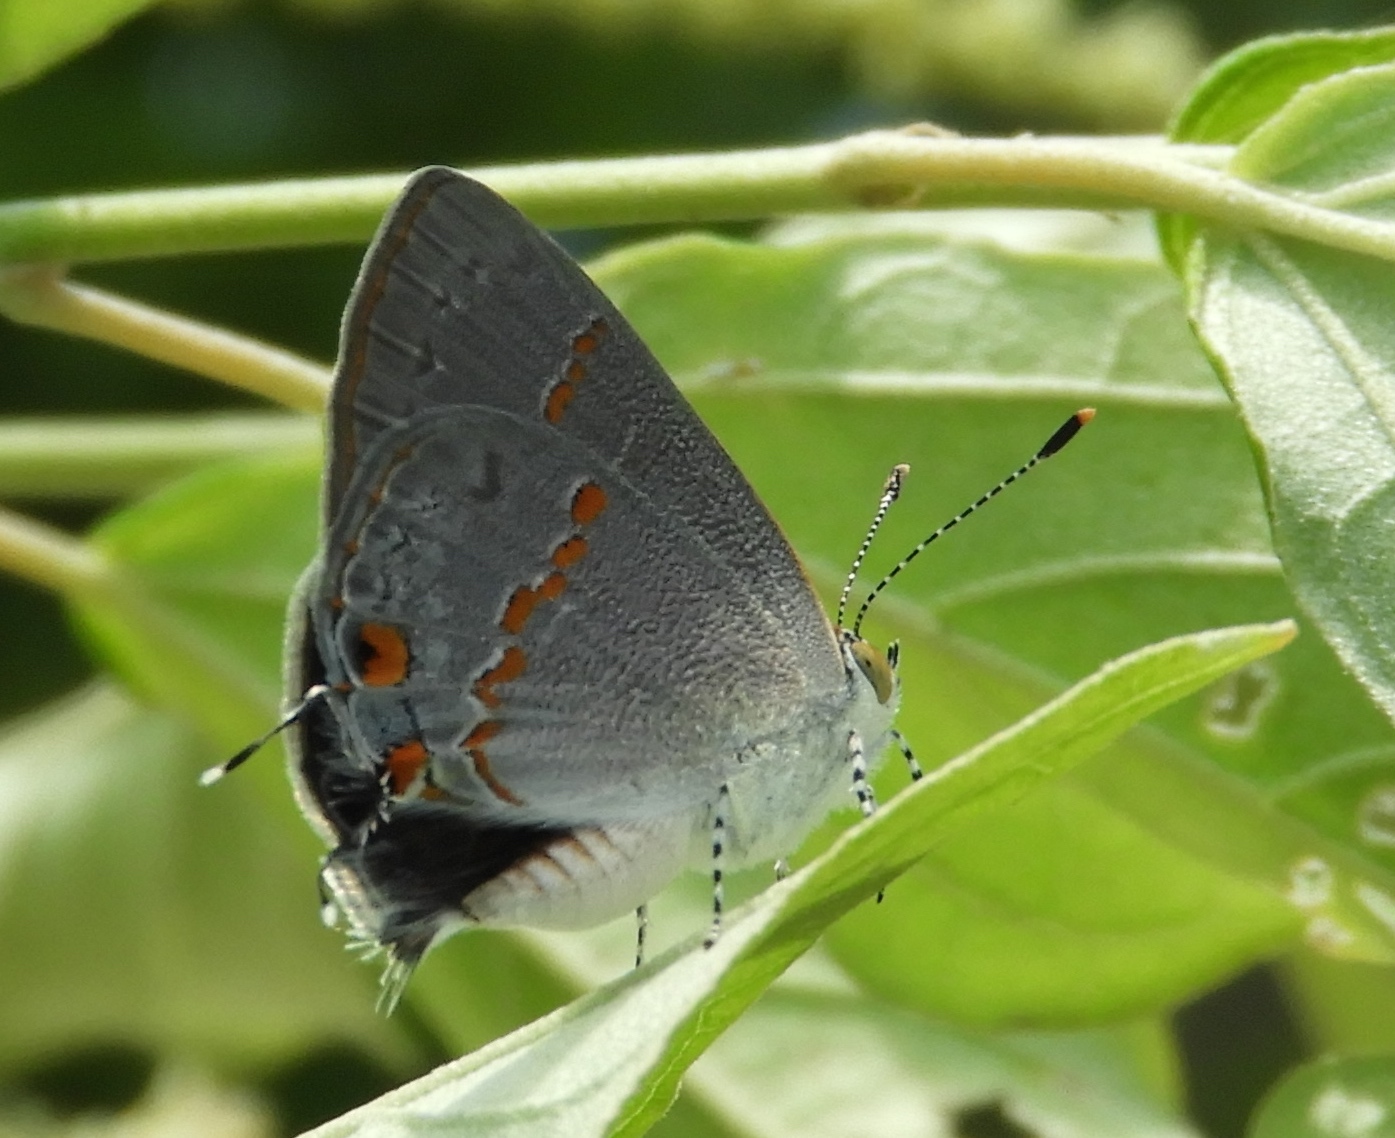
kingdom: Animalia
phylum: Arthropoda
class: Insecta
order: Lepidoptera
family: Lycaenidae
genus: Ministrymon
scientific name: Ministrymon janevicroy
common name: Pebbly ministreak
